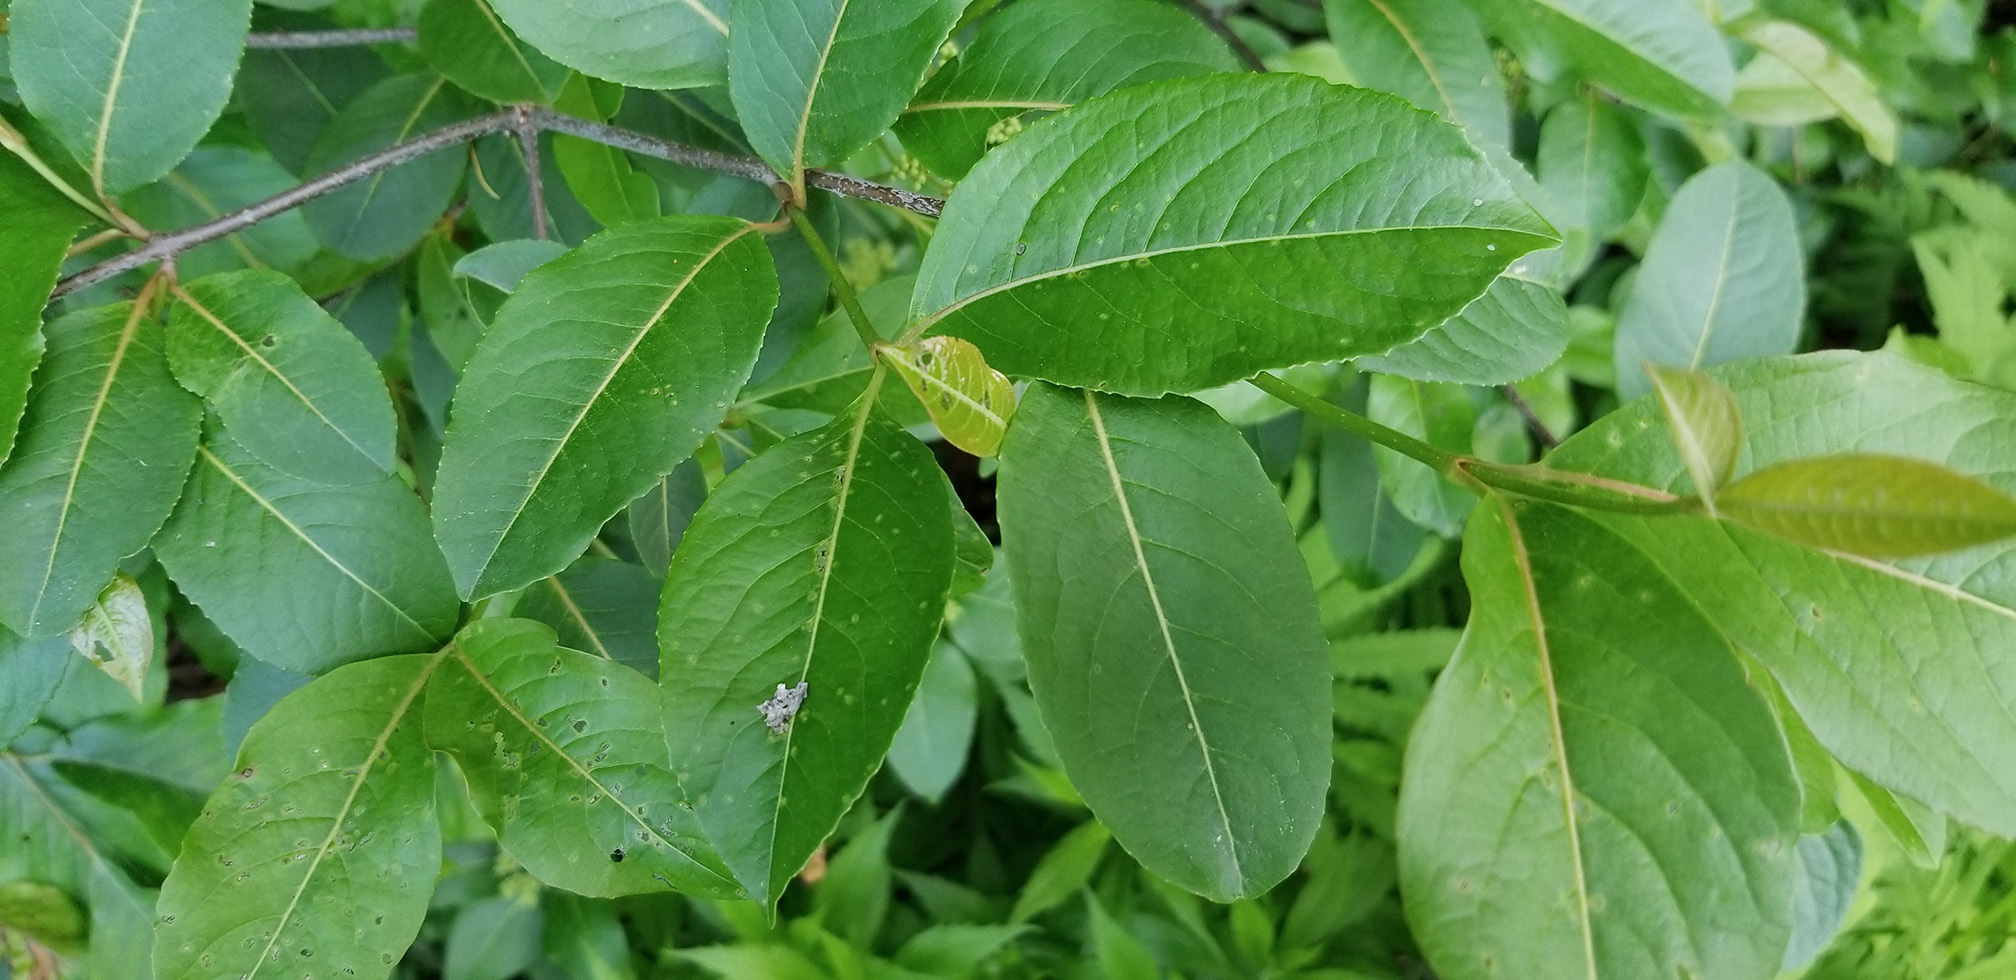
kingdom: Plantae
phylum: Tracheophyta
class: Magnoliopsida
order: Dipsacales
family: Viburnaceae
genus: Viburnum
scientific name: Viburnum cassinoides
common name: Swamp haw
